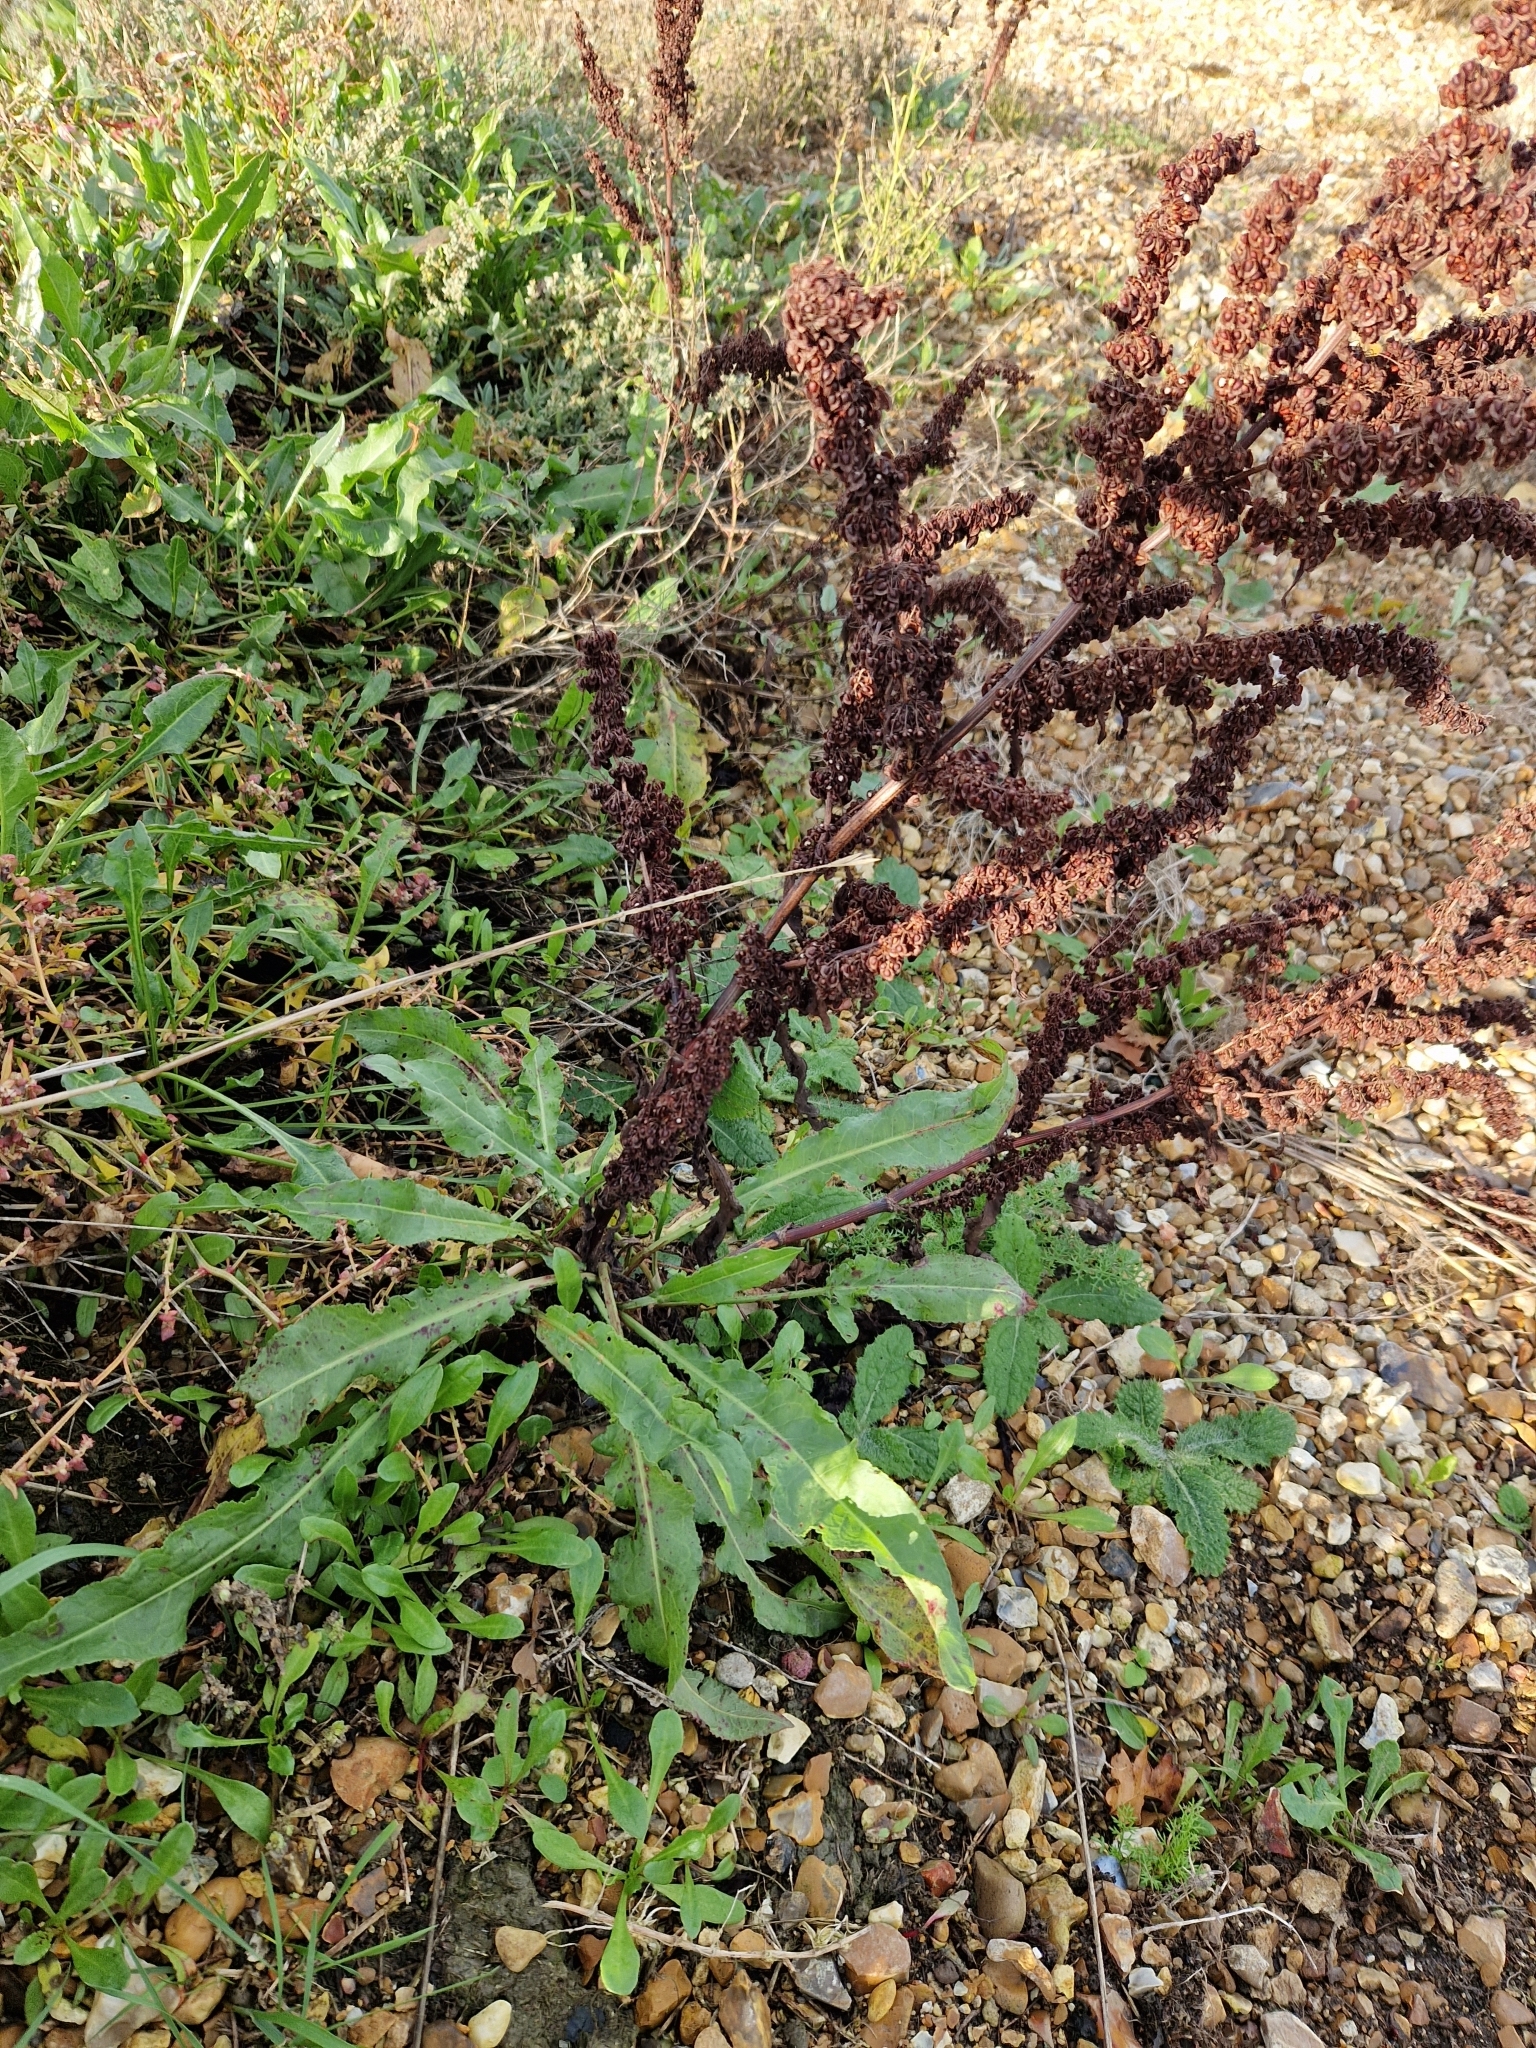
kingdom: Plantae
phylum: Tracheophyta
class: Magnoliopsida
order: Caryophyllales
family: Polygonaceae
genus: Rumex
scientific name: Rumex crispus
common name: Curled dock
